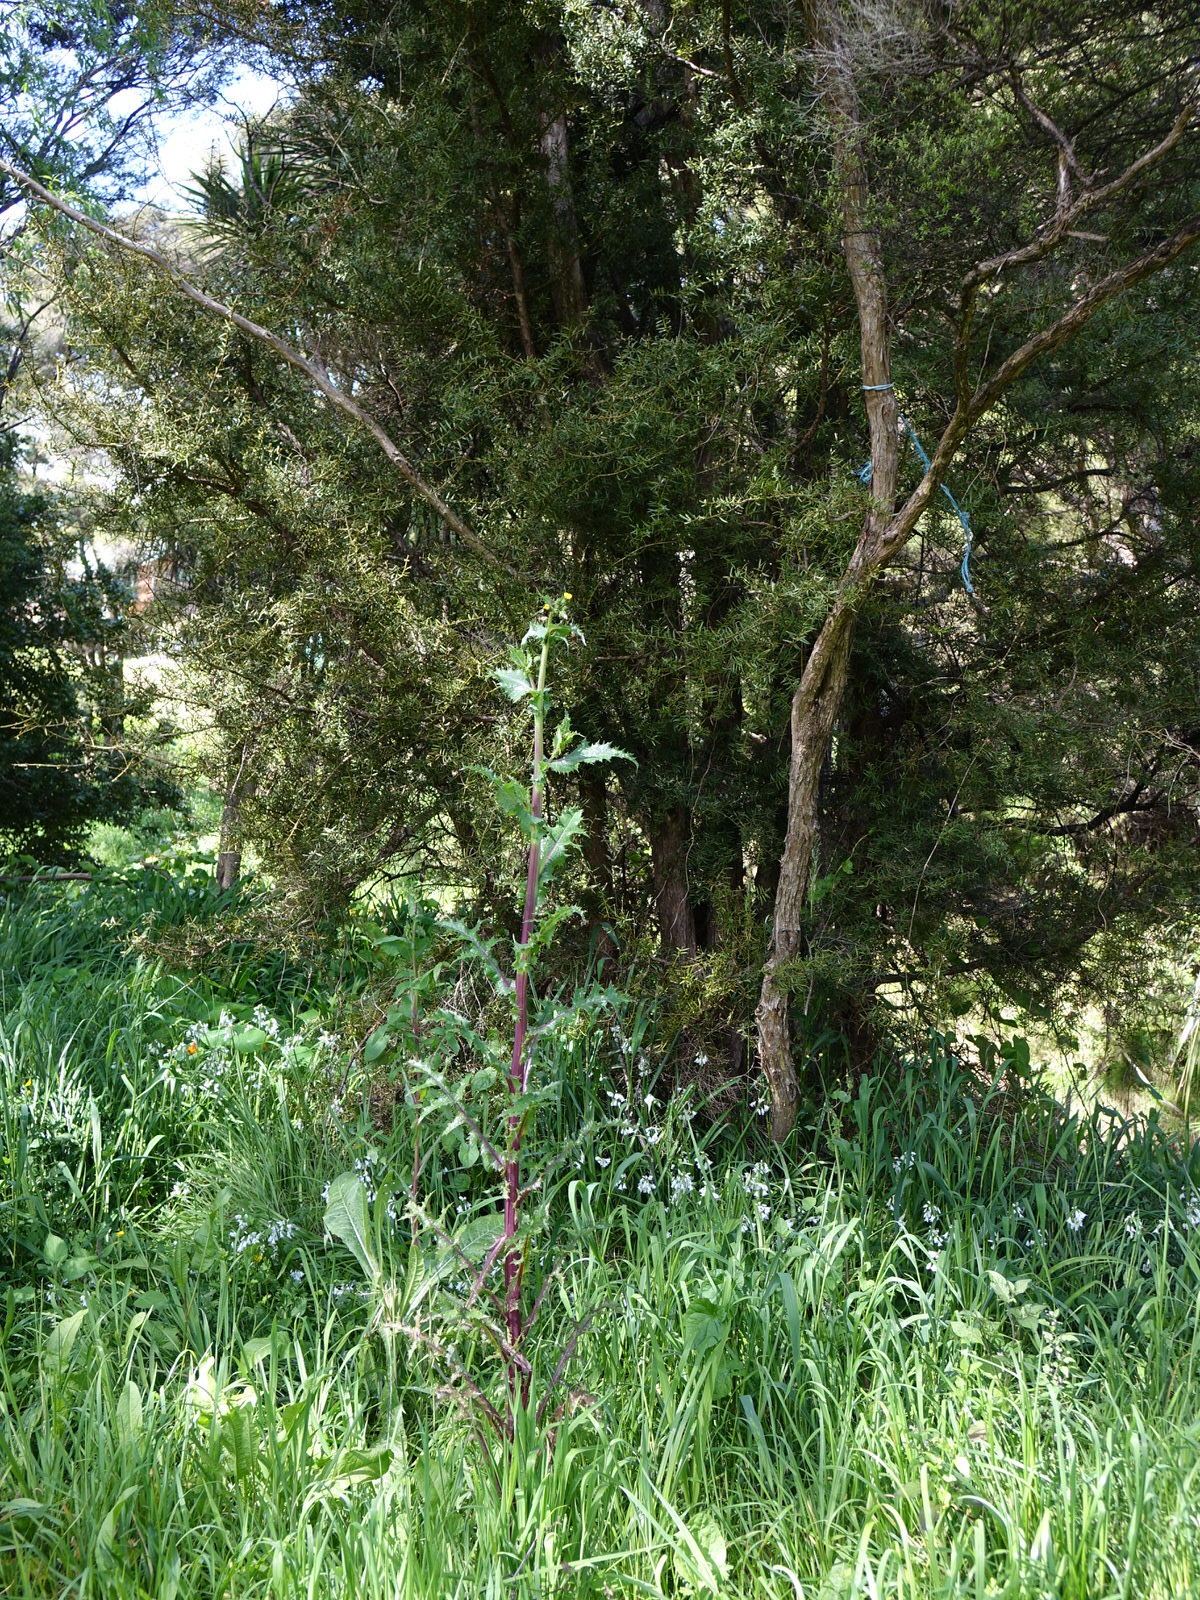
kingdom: Plantae
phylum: Tracheophyta
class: Magnoliopsida
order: Asterales
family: Asteraceae
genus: Sonchus
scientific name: Sonchus asper
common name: Prickly sow-thistle
